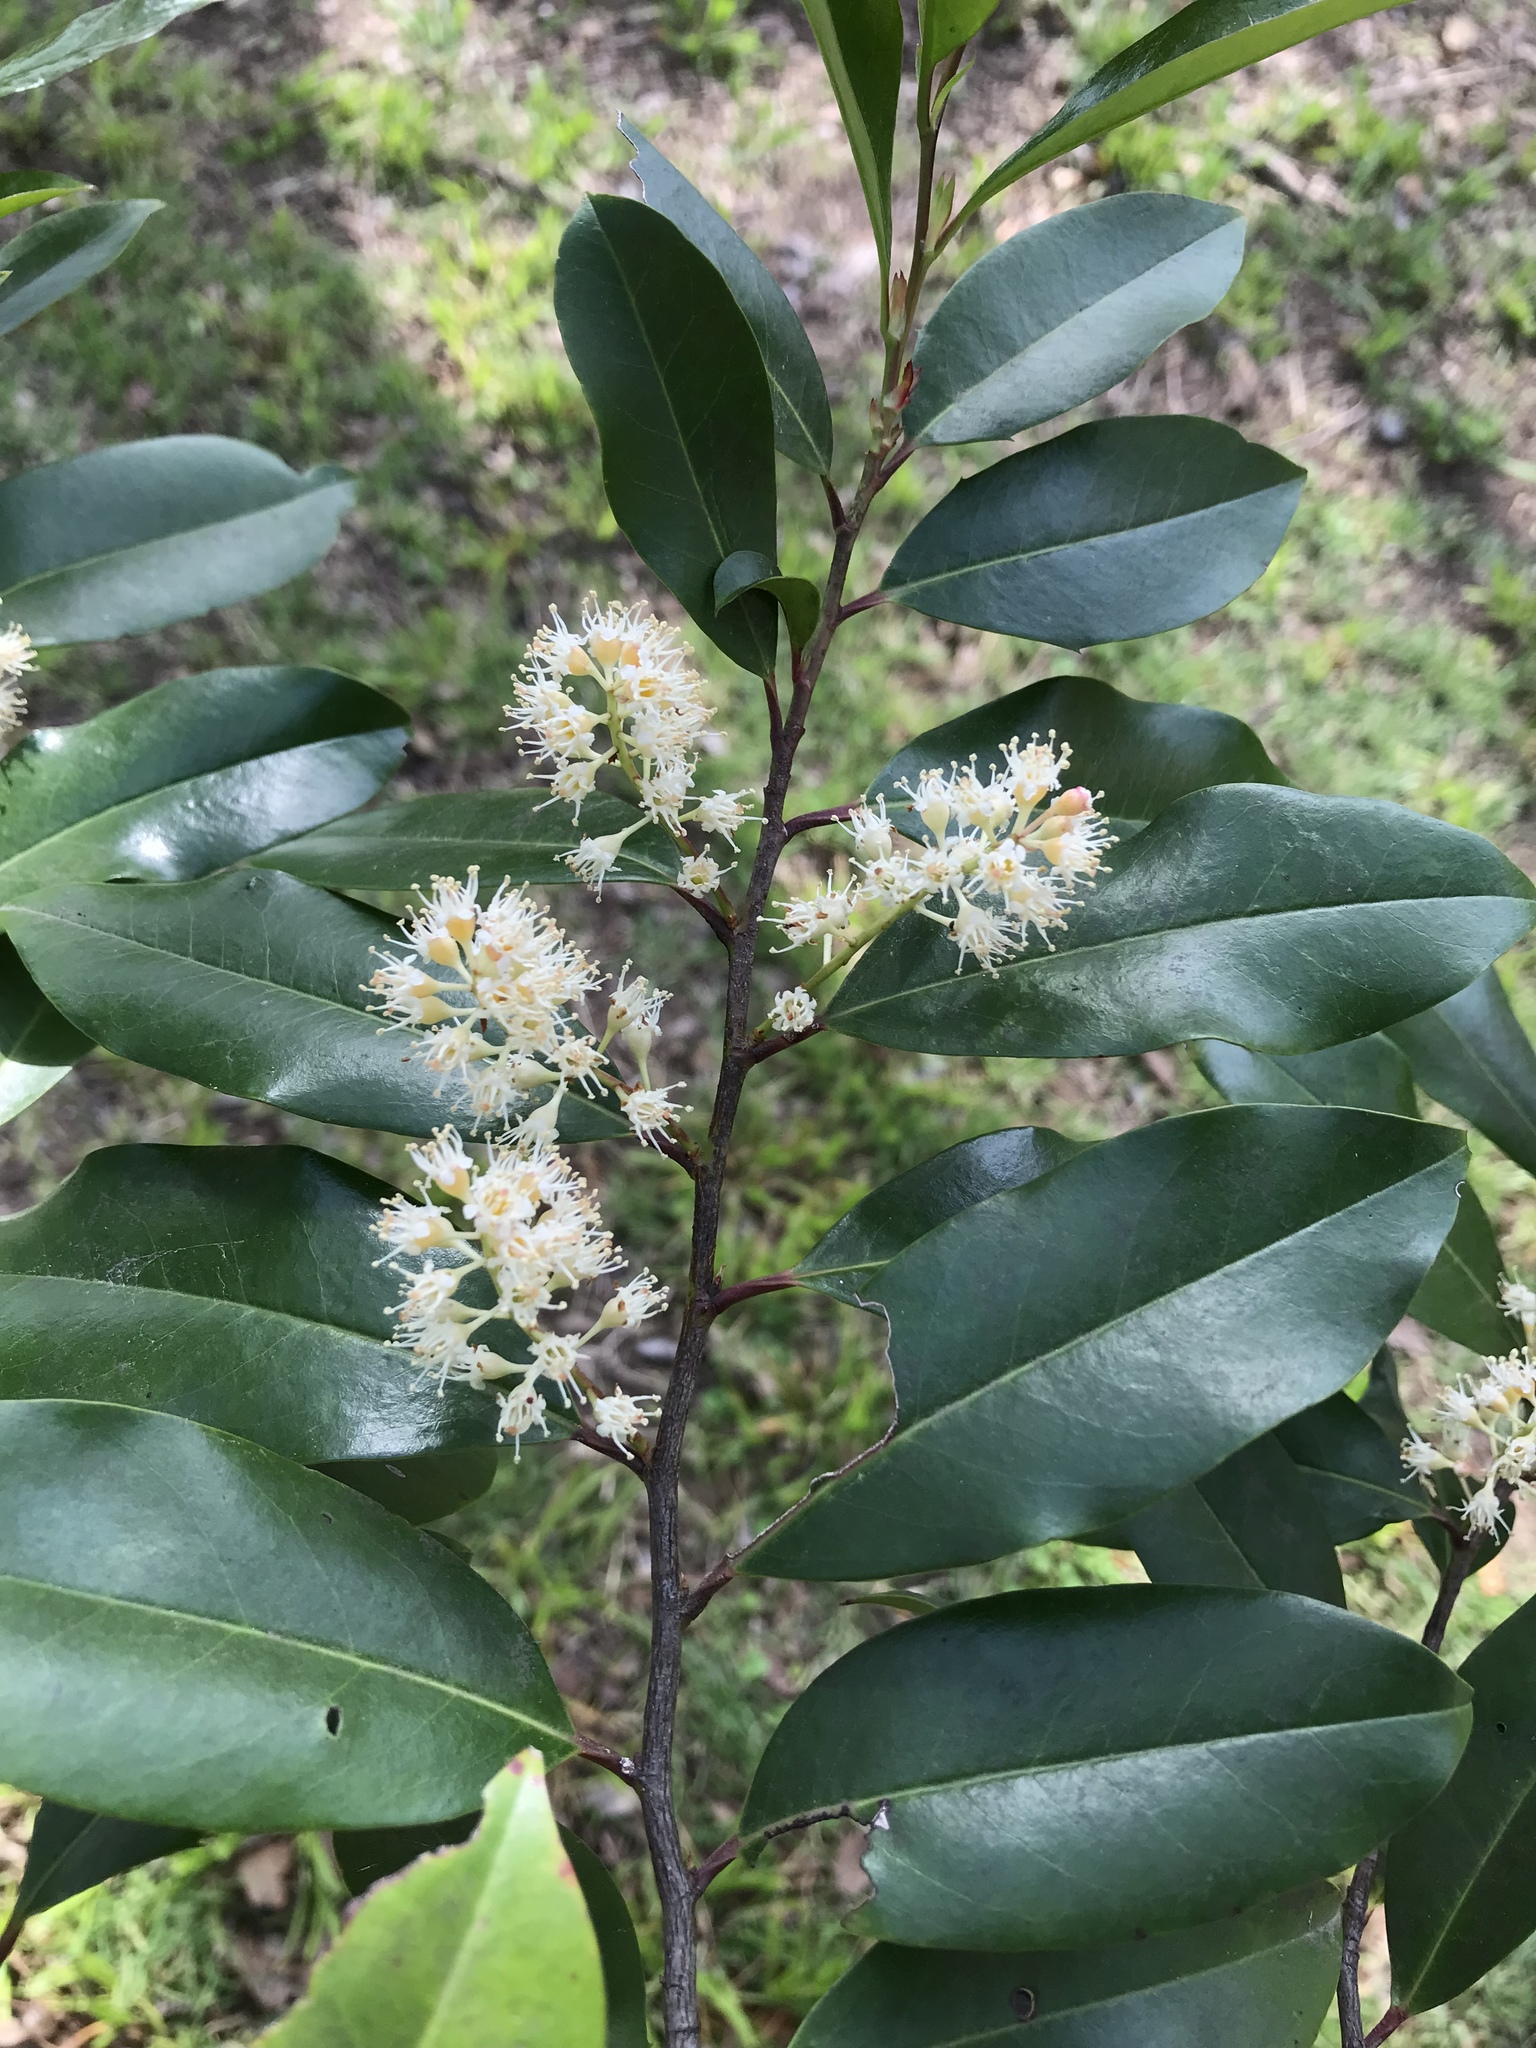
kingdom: Plantae
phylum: Tracheophyta
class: Magnoliopsida
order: Rosales
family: Rosaceae
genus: Prunus
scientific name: Prunus caroliniana
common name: Carolina laurel cherry
